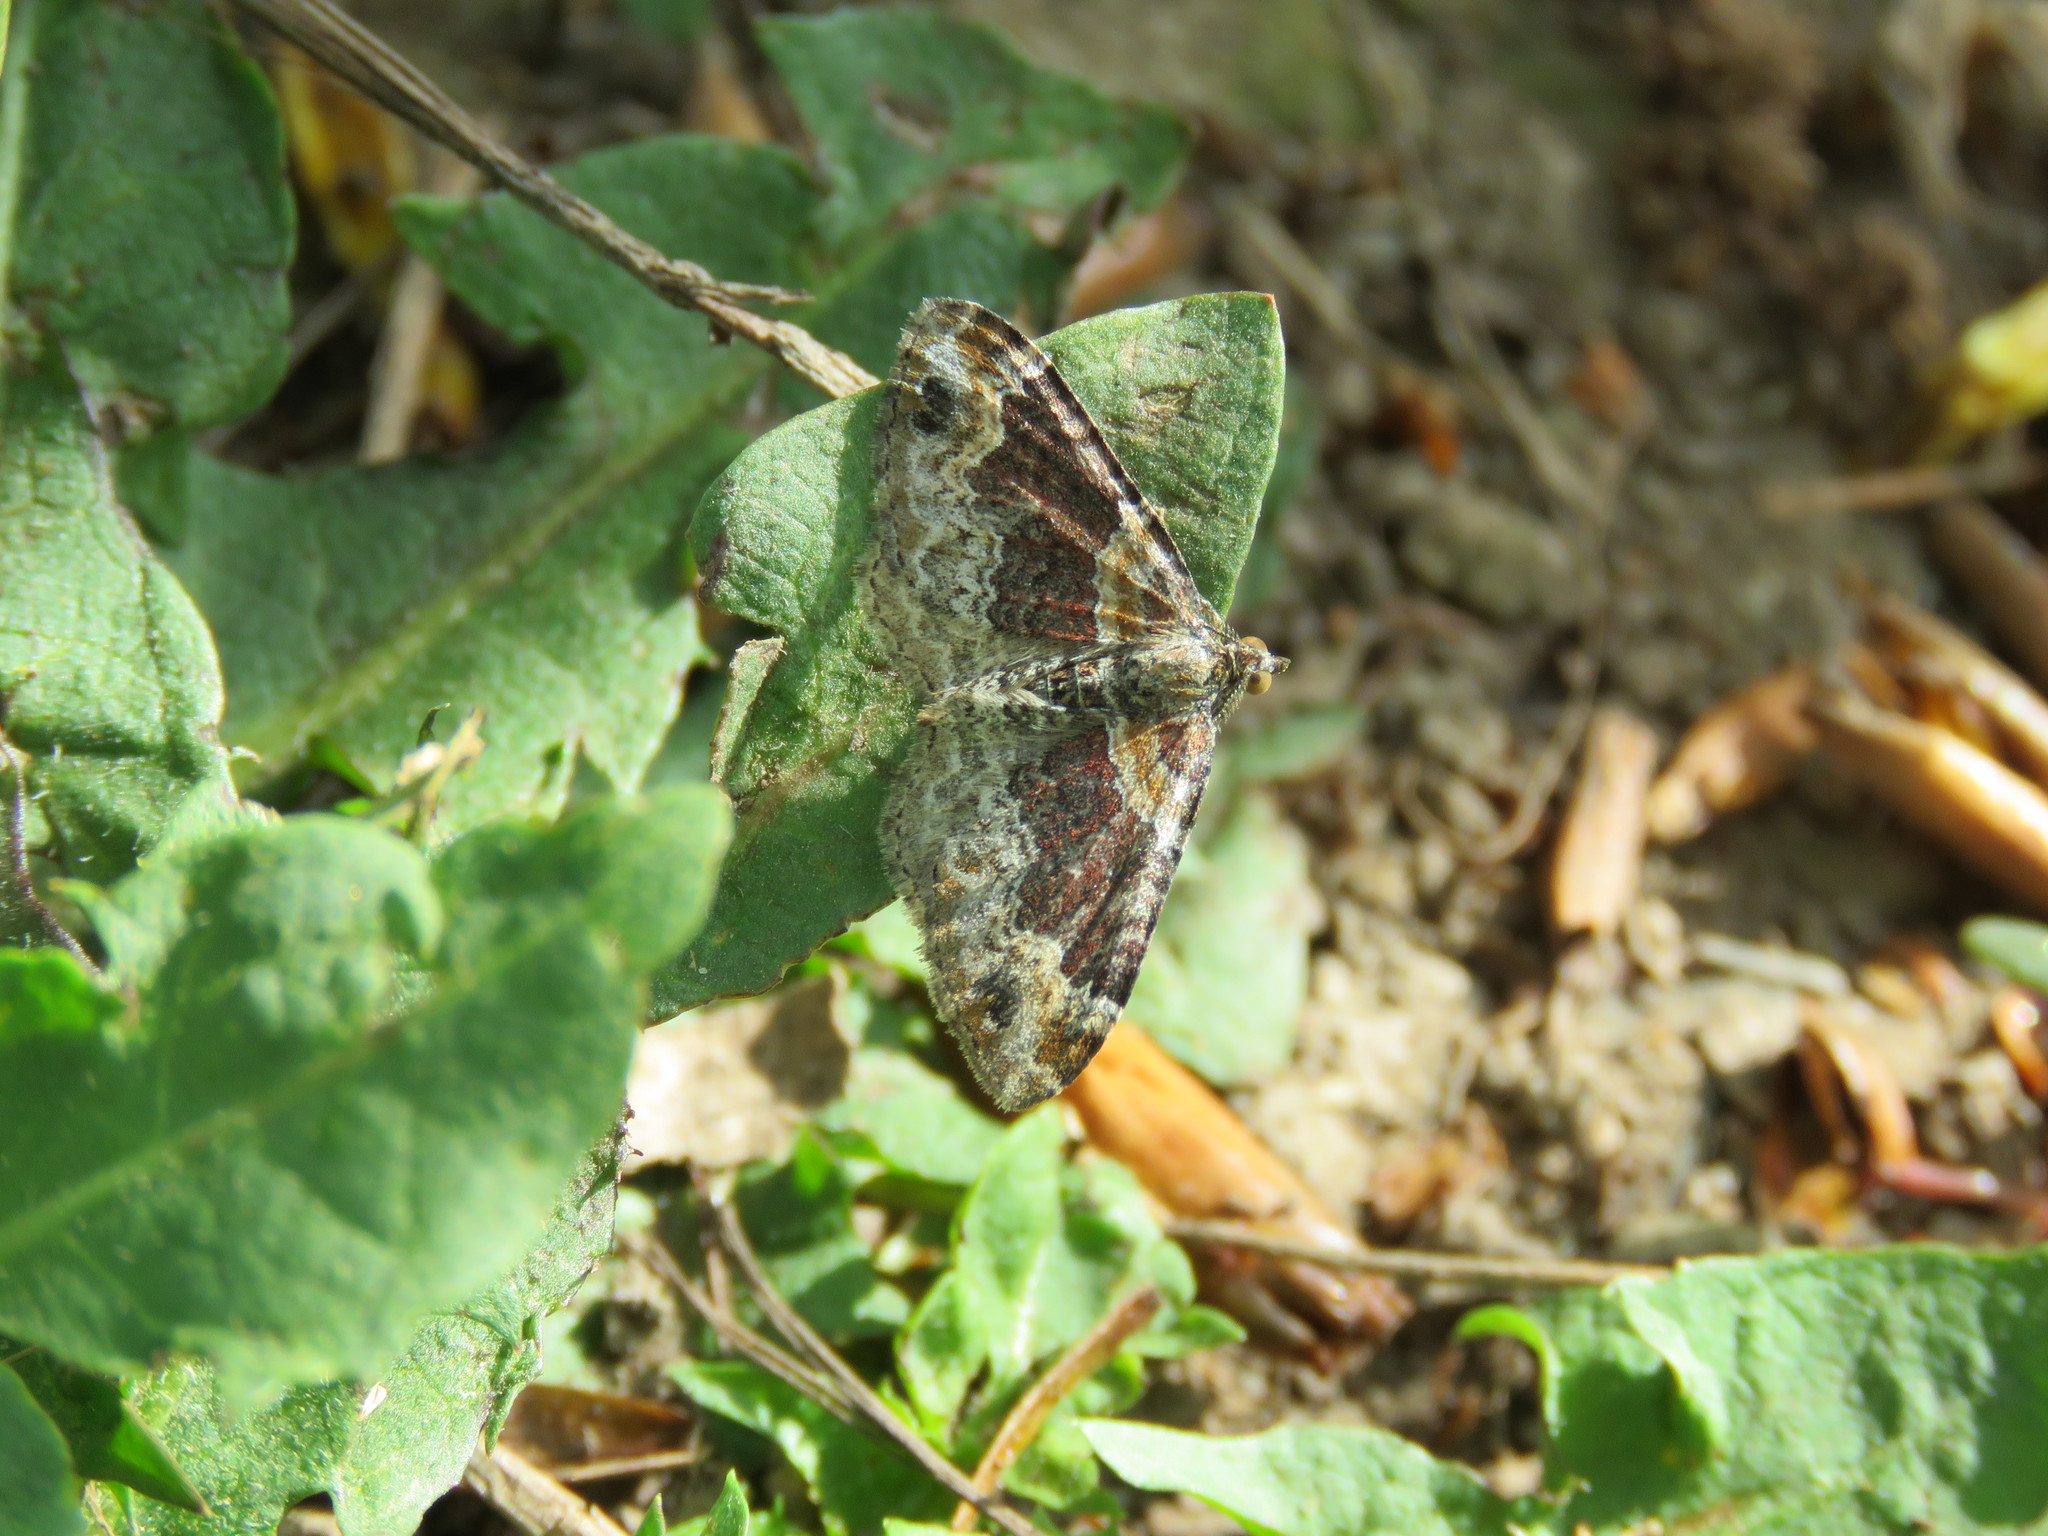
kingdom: Animalia
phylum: Arthropoda
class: Insecta
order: Lepidoptera
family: Geometridae
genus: Xanthorhoe
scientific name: Xanthorhoe ferrugata
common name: Dark-barred twin-spot carpet
